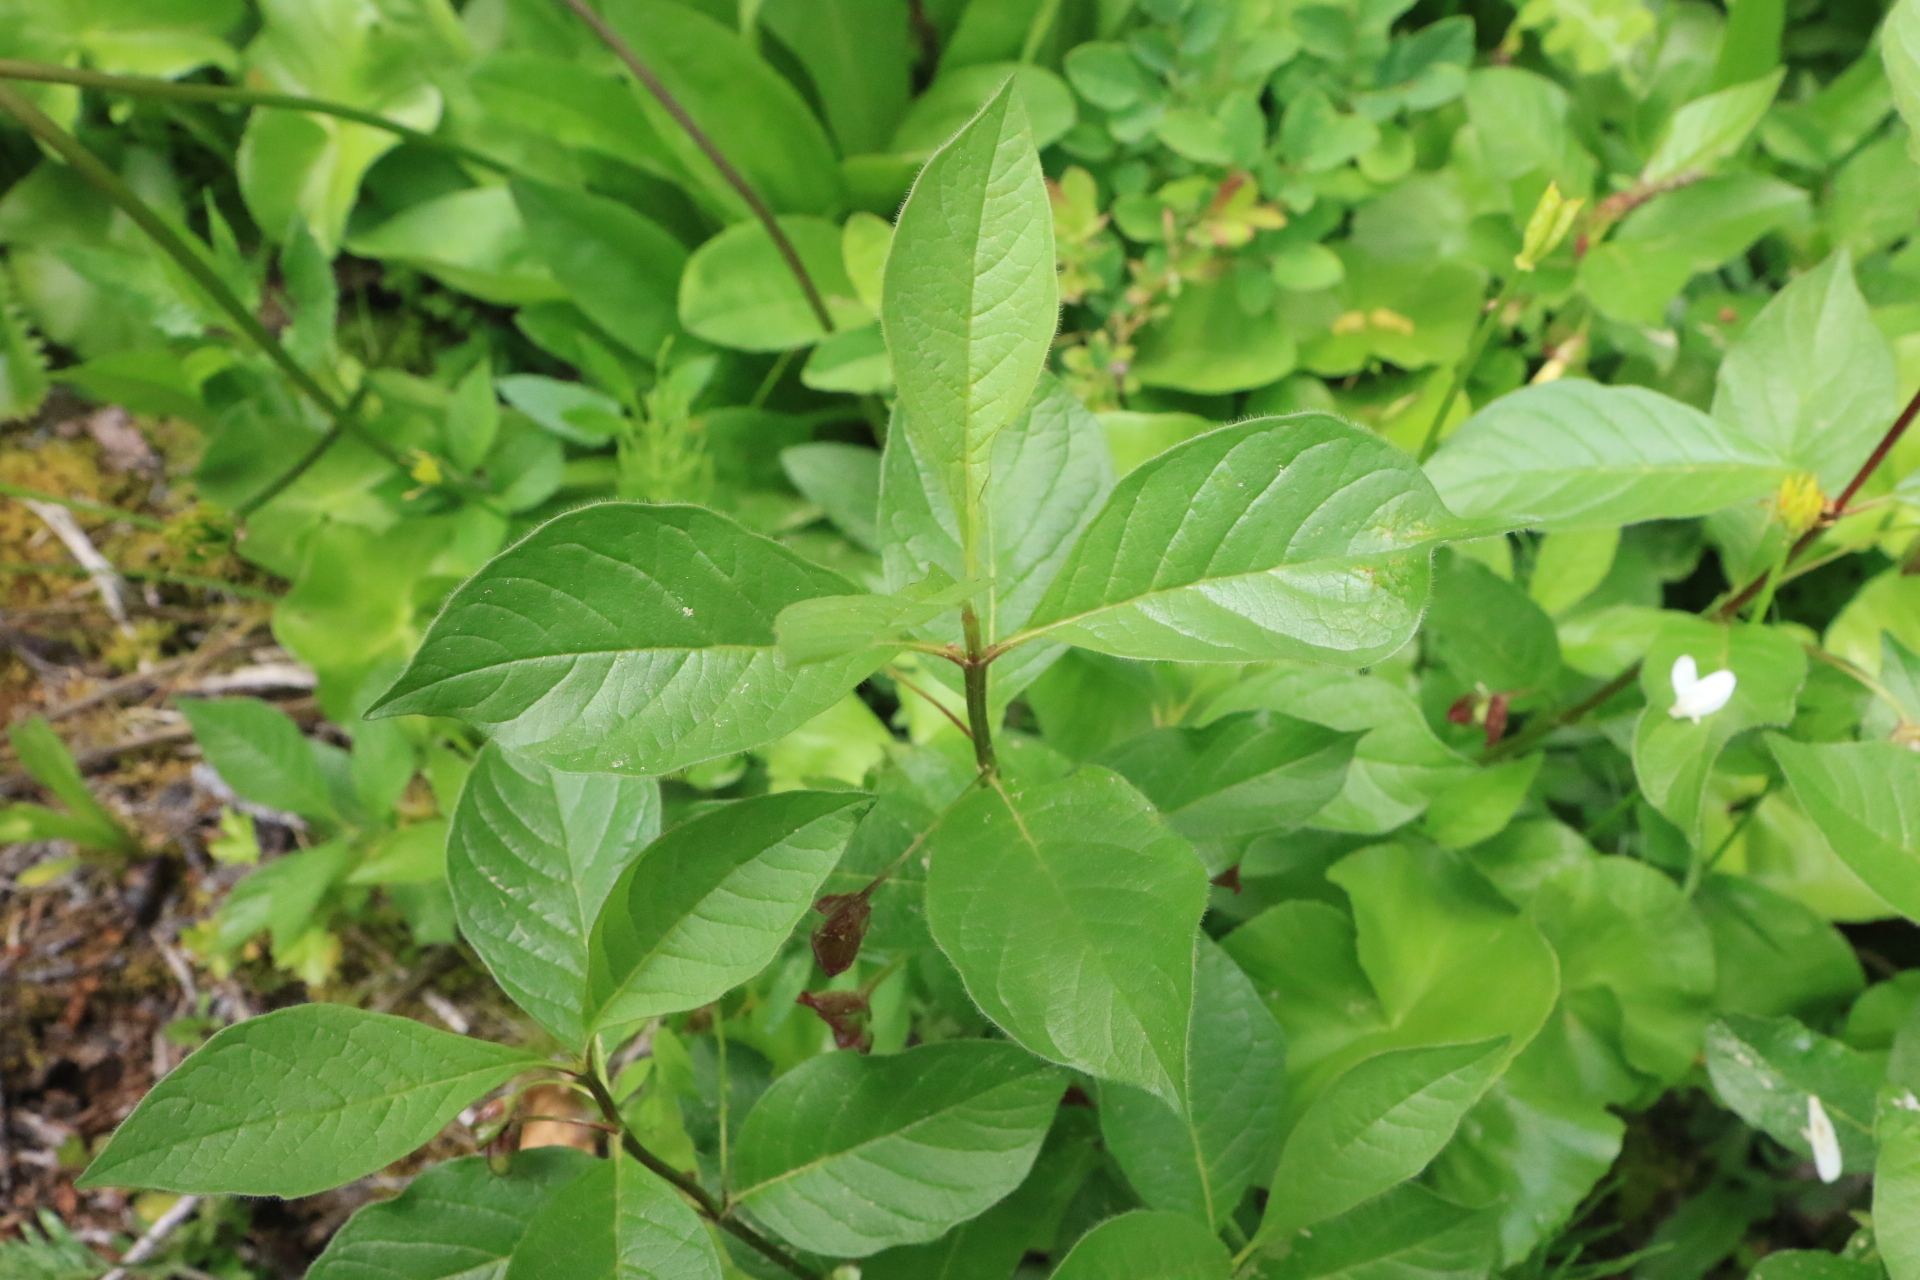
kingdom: Plantae
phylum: Tracheophyta
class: Magnoliopsida
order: Dipsacales
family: Caprifoliaceae
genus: Lonicera
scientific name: Lonicera involucrata
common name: Californian honeysuckle
